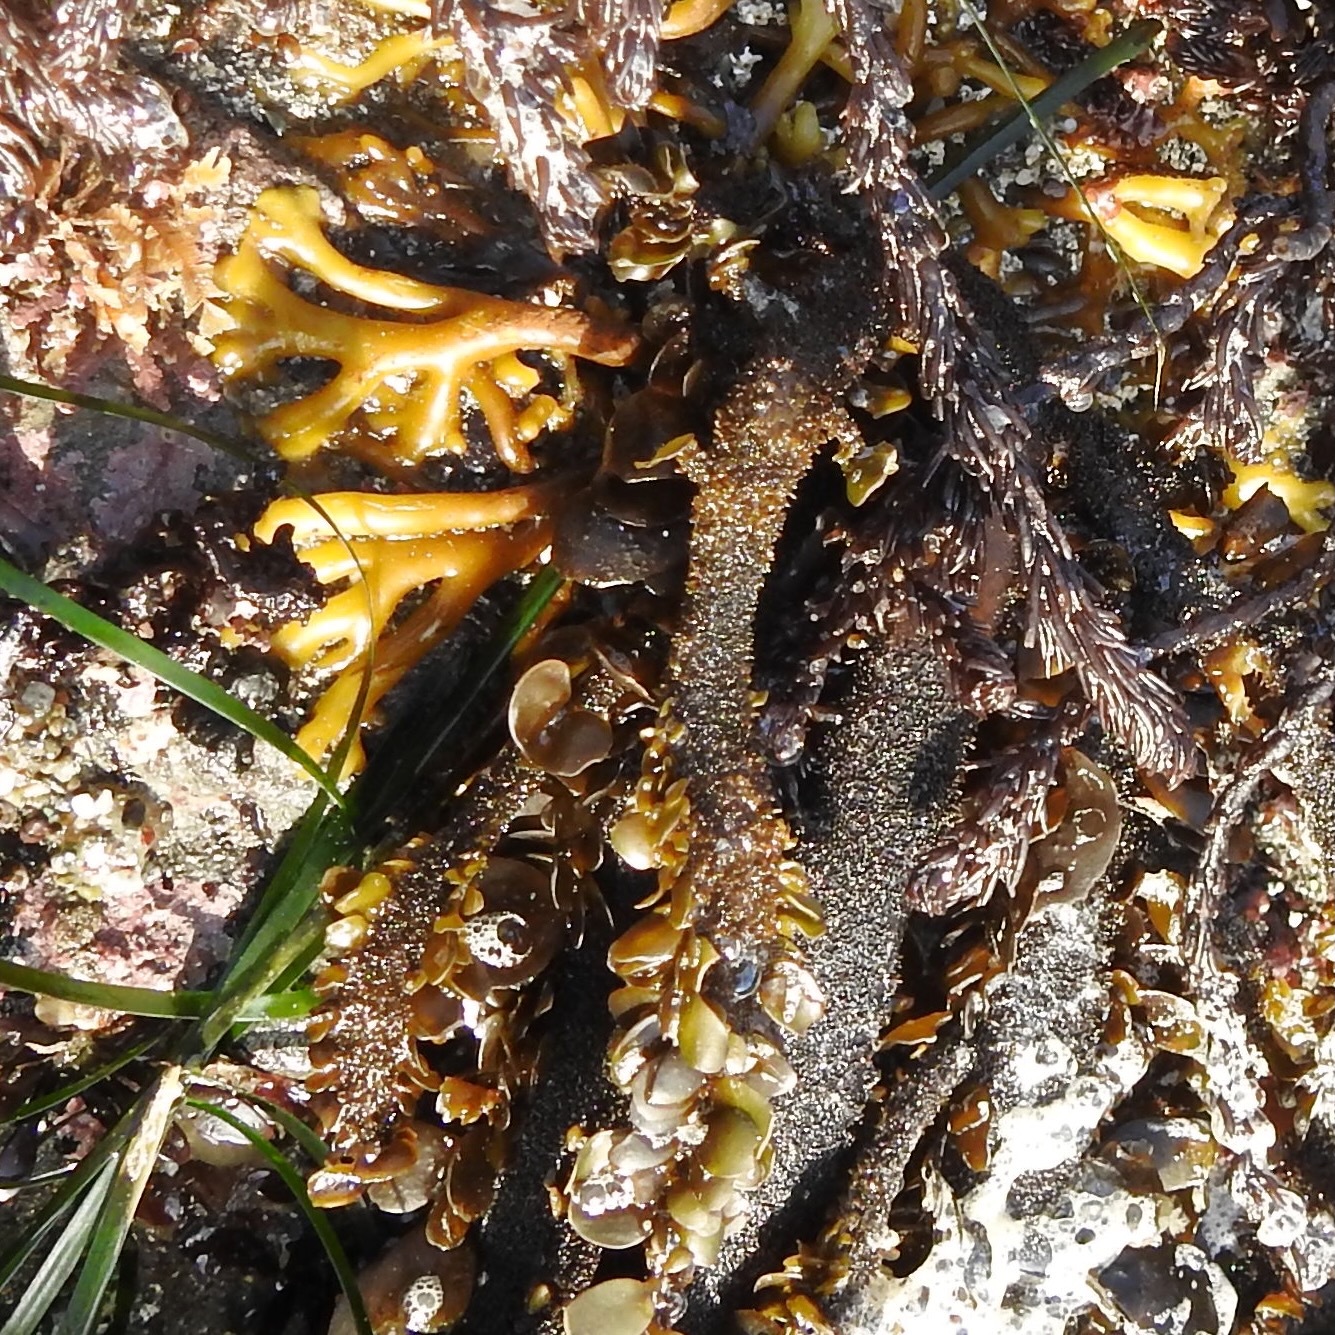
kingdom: Chromista
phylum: Ochrophyta
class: Phaeophyceae
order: Laminariales
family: Lessoniaceae
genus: Egregia
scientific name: Egregia menziesii
